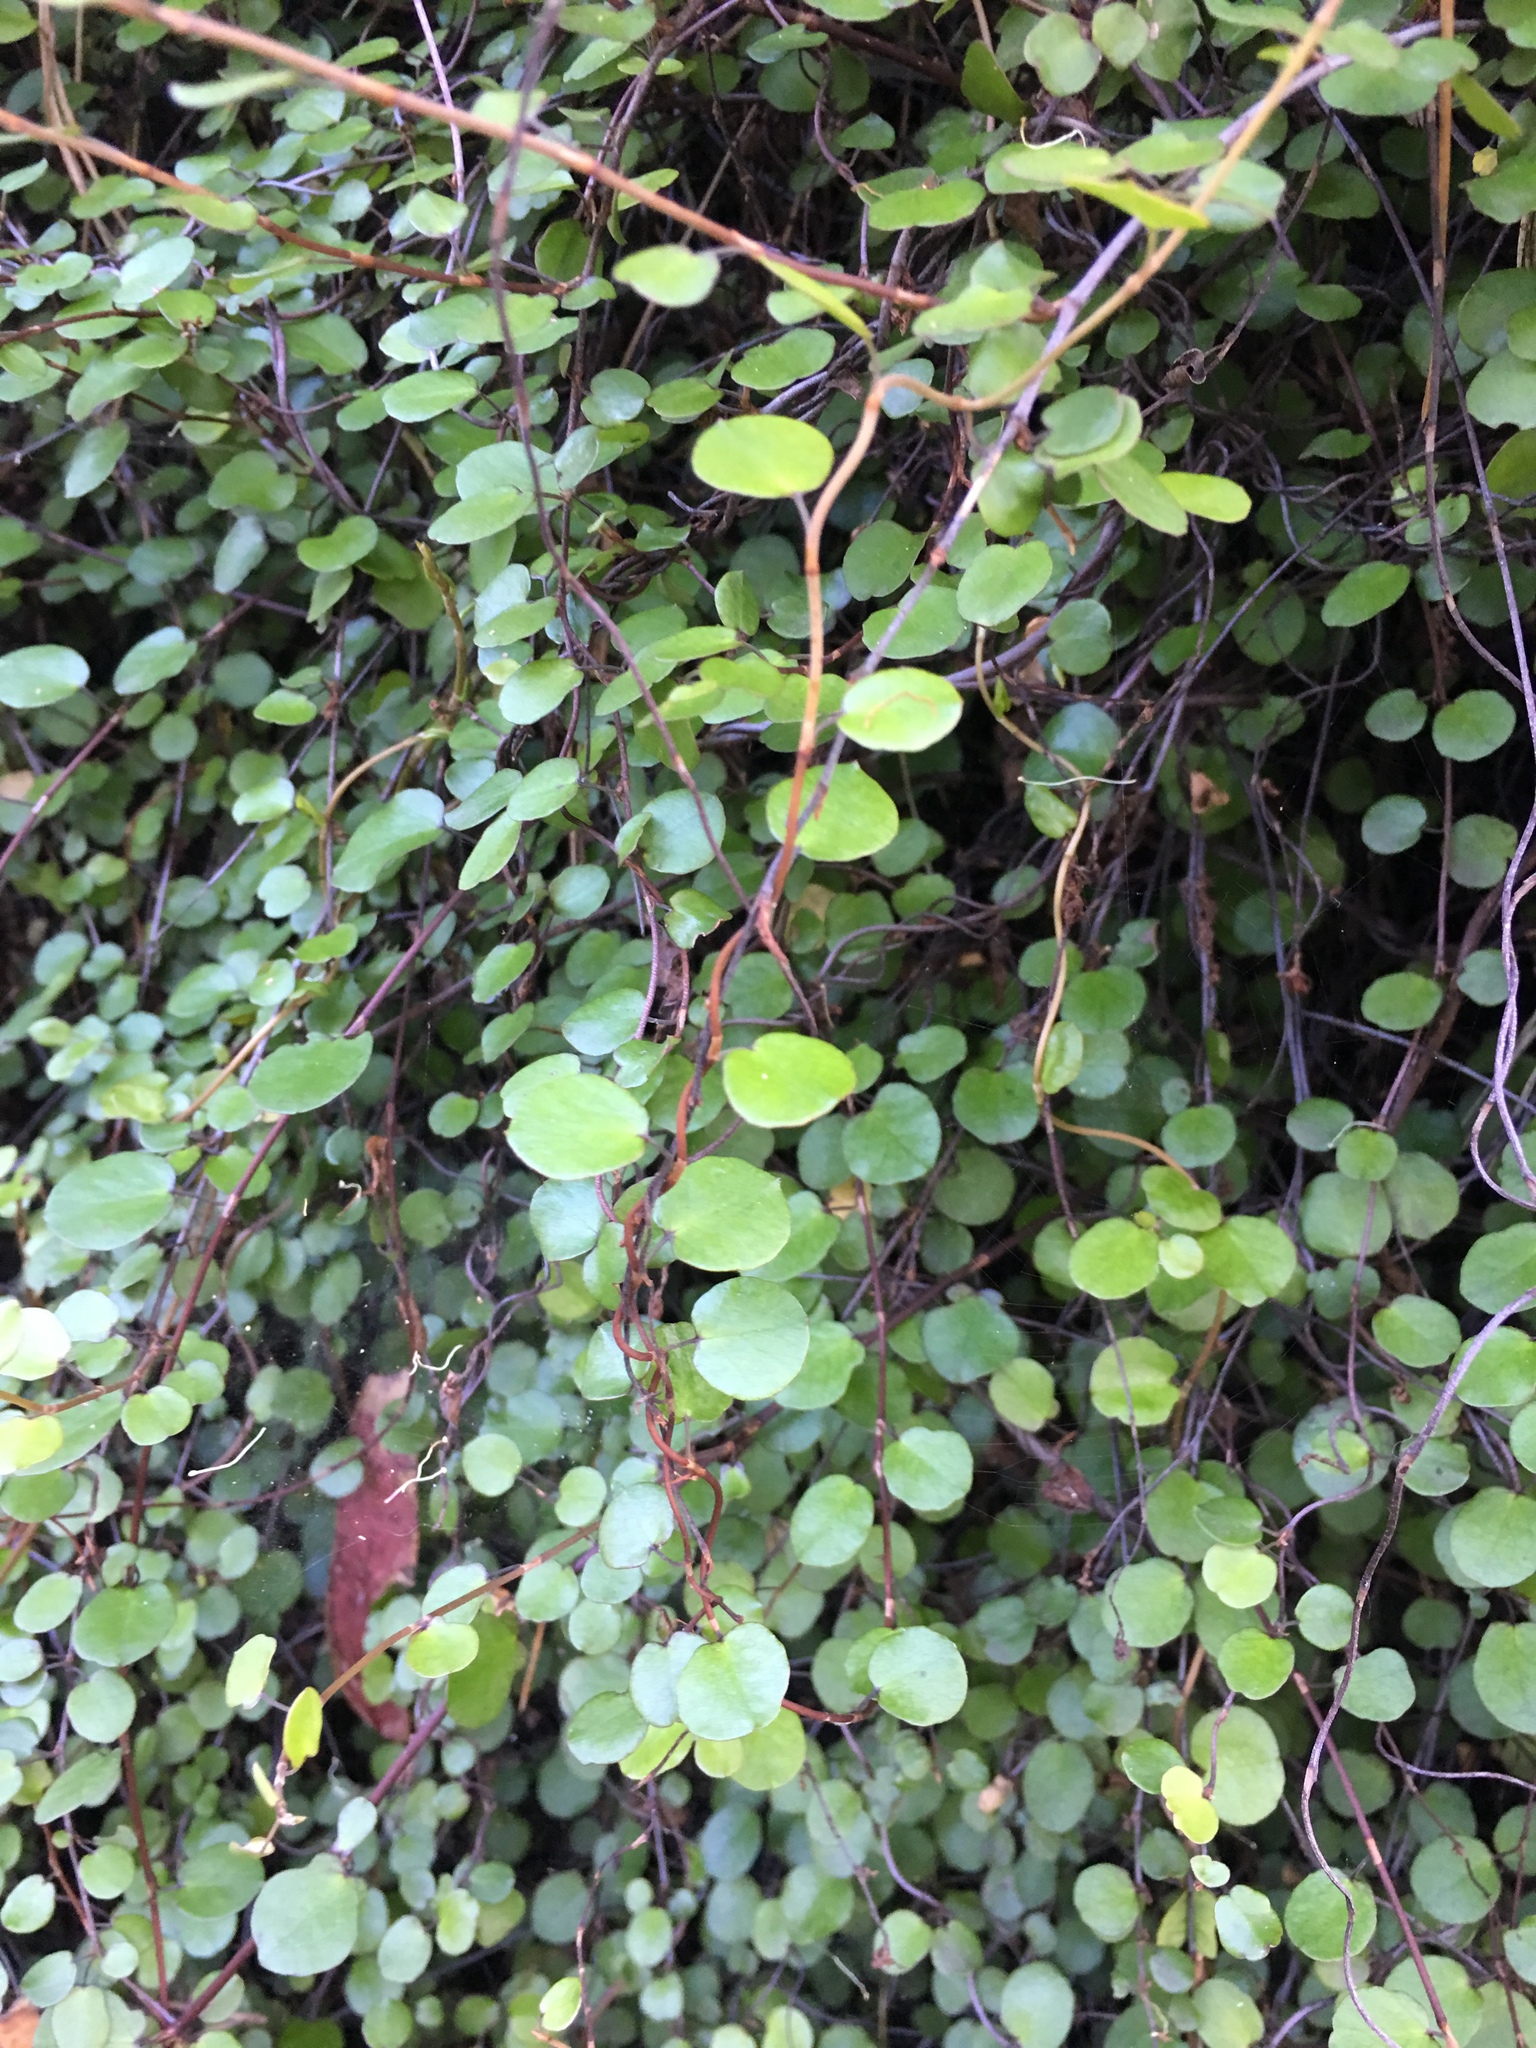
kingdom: Plantae
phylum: Tracheophyta
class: Magnoliopsida
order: Caryophyllales
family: Polygonaceae
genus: Muehlenbeckia
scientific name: Muehlenbeckia complexa
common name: Wireplant
